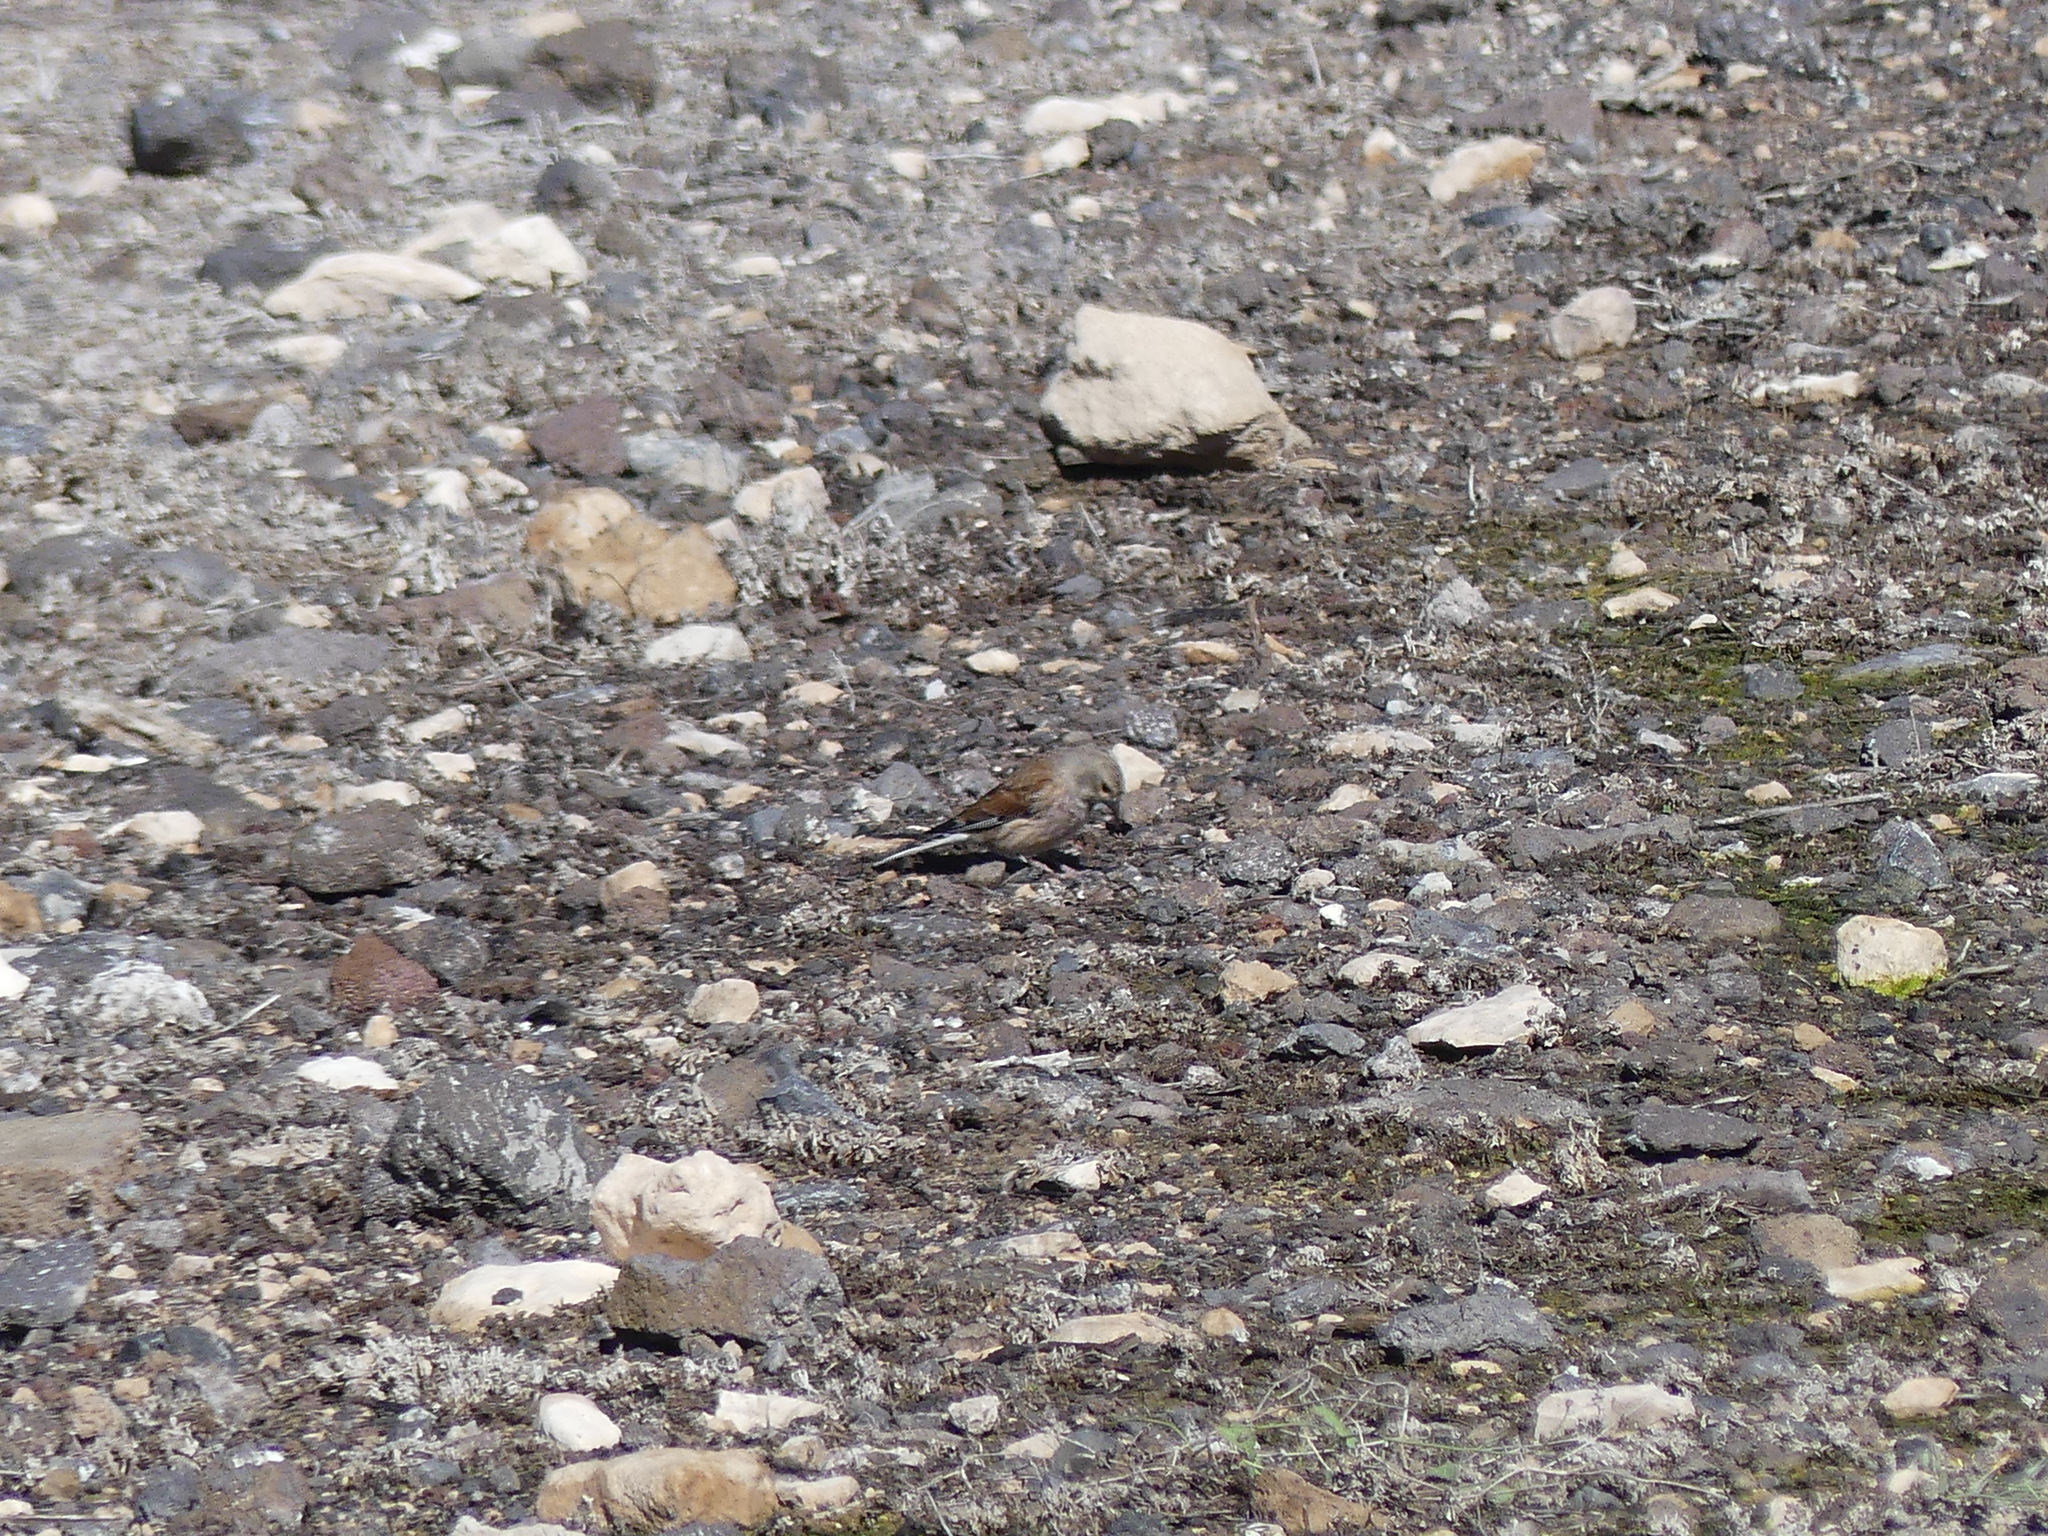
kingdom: Animalia
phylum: Chordata
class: Aves
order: Passeriformes
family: Fringillidae
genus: Linaria
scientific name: Linaria cannabina
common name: Common linnet
